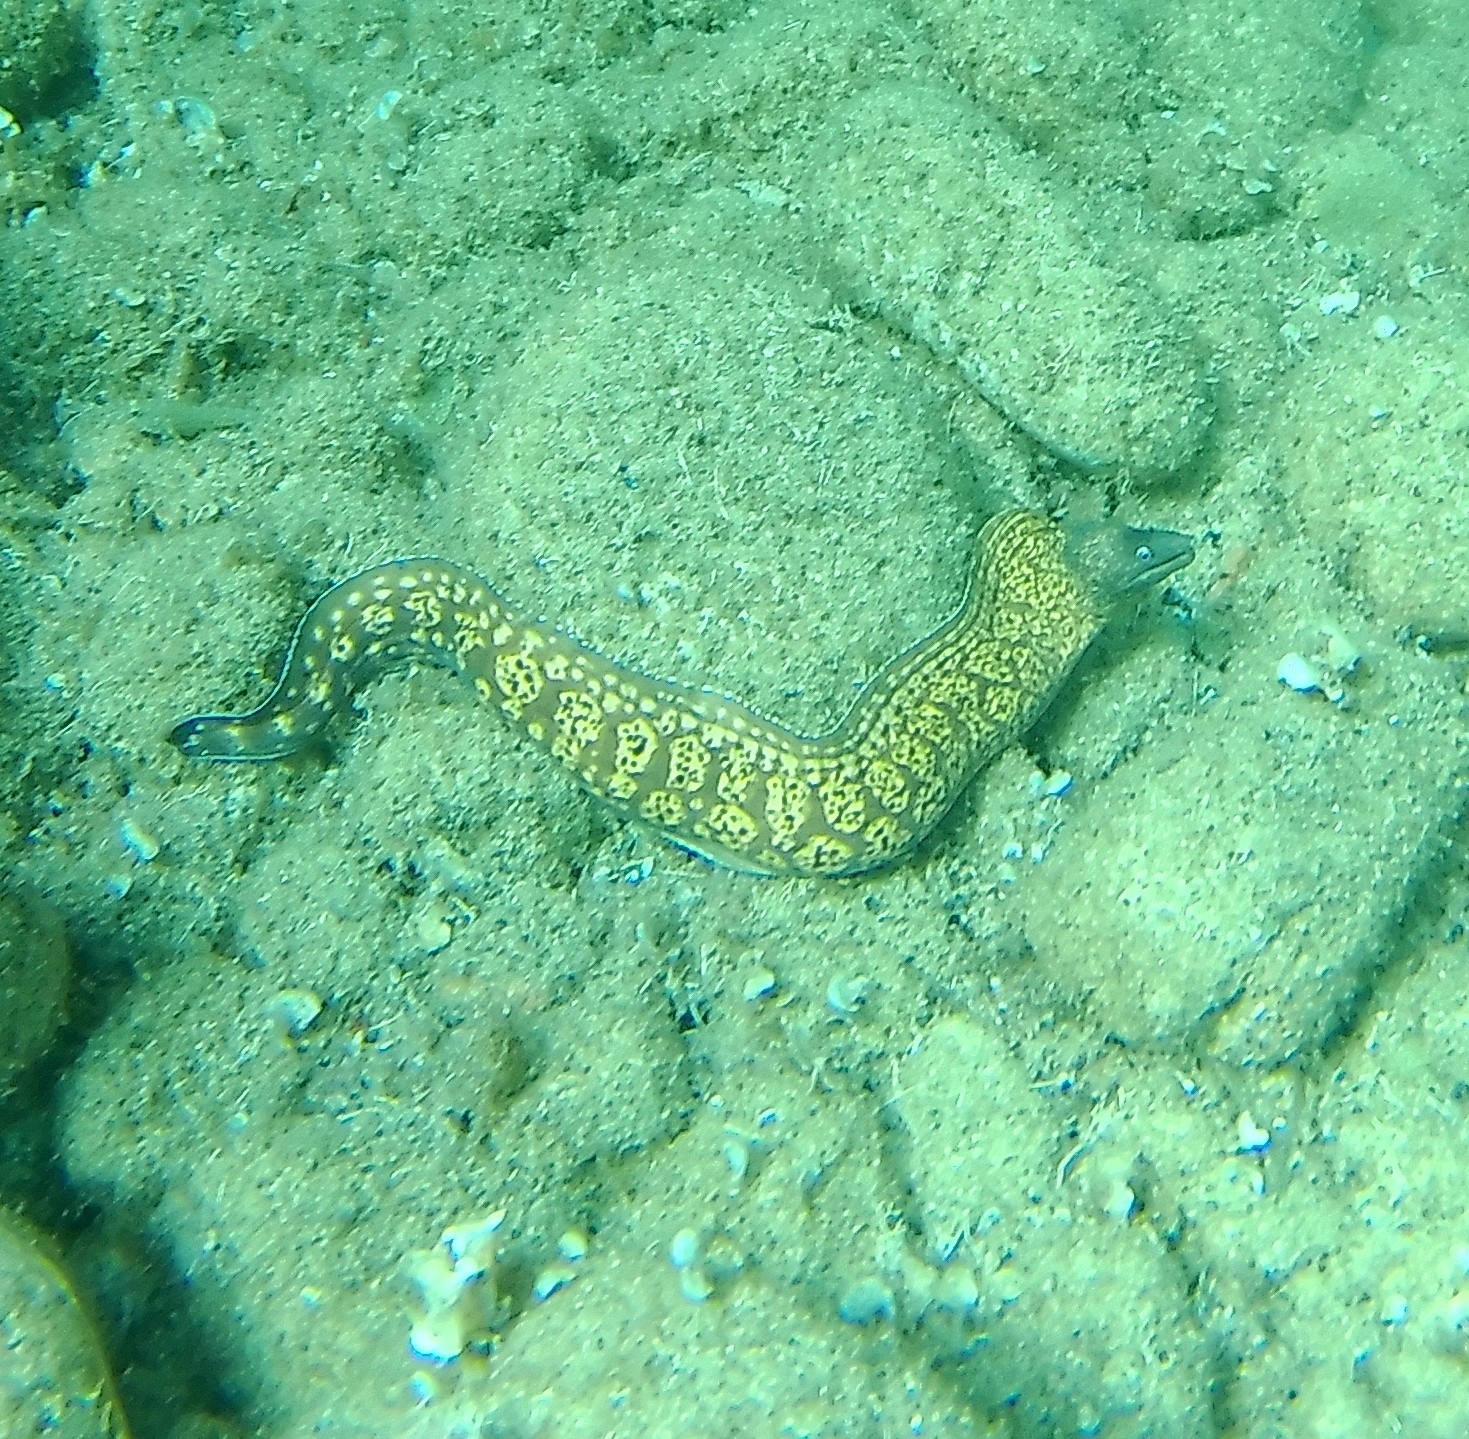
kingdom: Animalia
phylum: Chordata
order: Anguilliformes
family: Muraenidae
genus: Muraena
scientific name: Muraena helena
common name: Mediterranean moray
